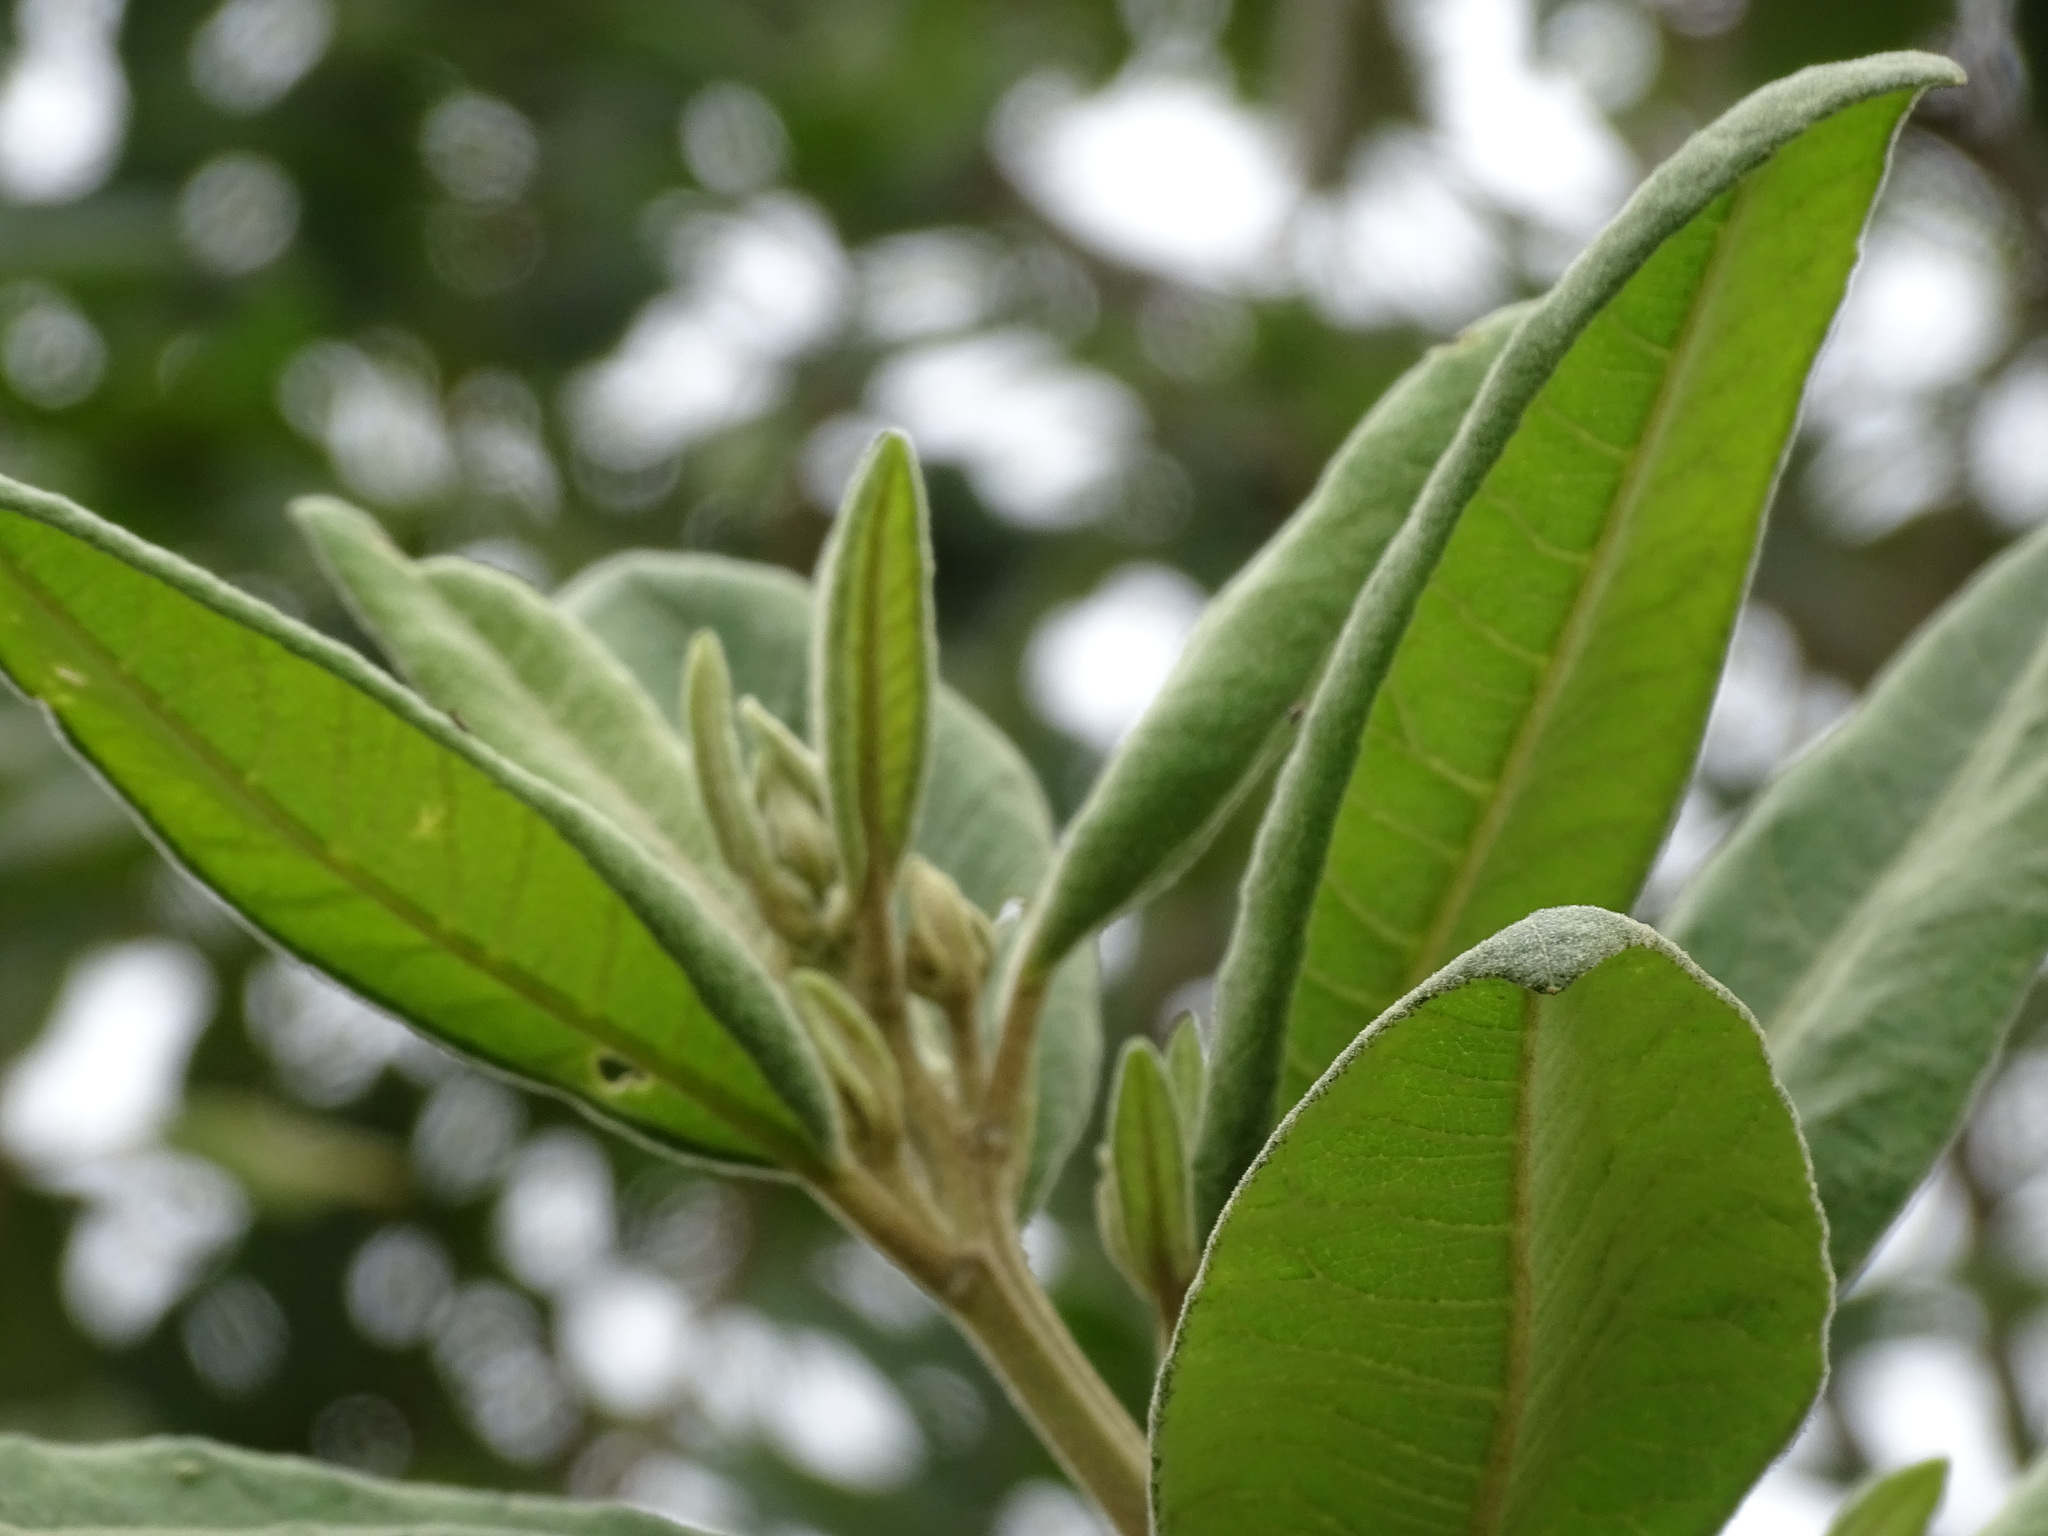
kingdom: Plantae
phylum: Tracheophyta
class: Magnoliopsida
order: Asterales
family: Asteraceae
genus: Vernonanthura
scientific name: Vernonanthura patens
